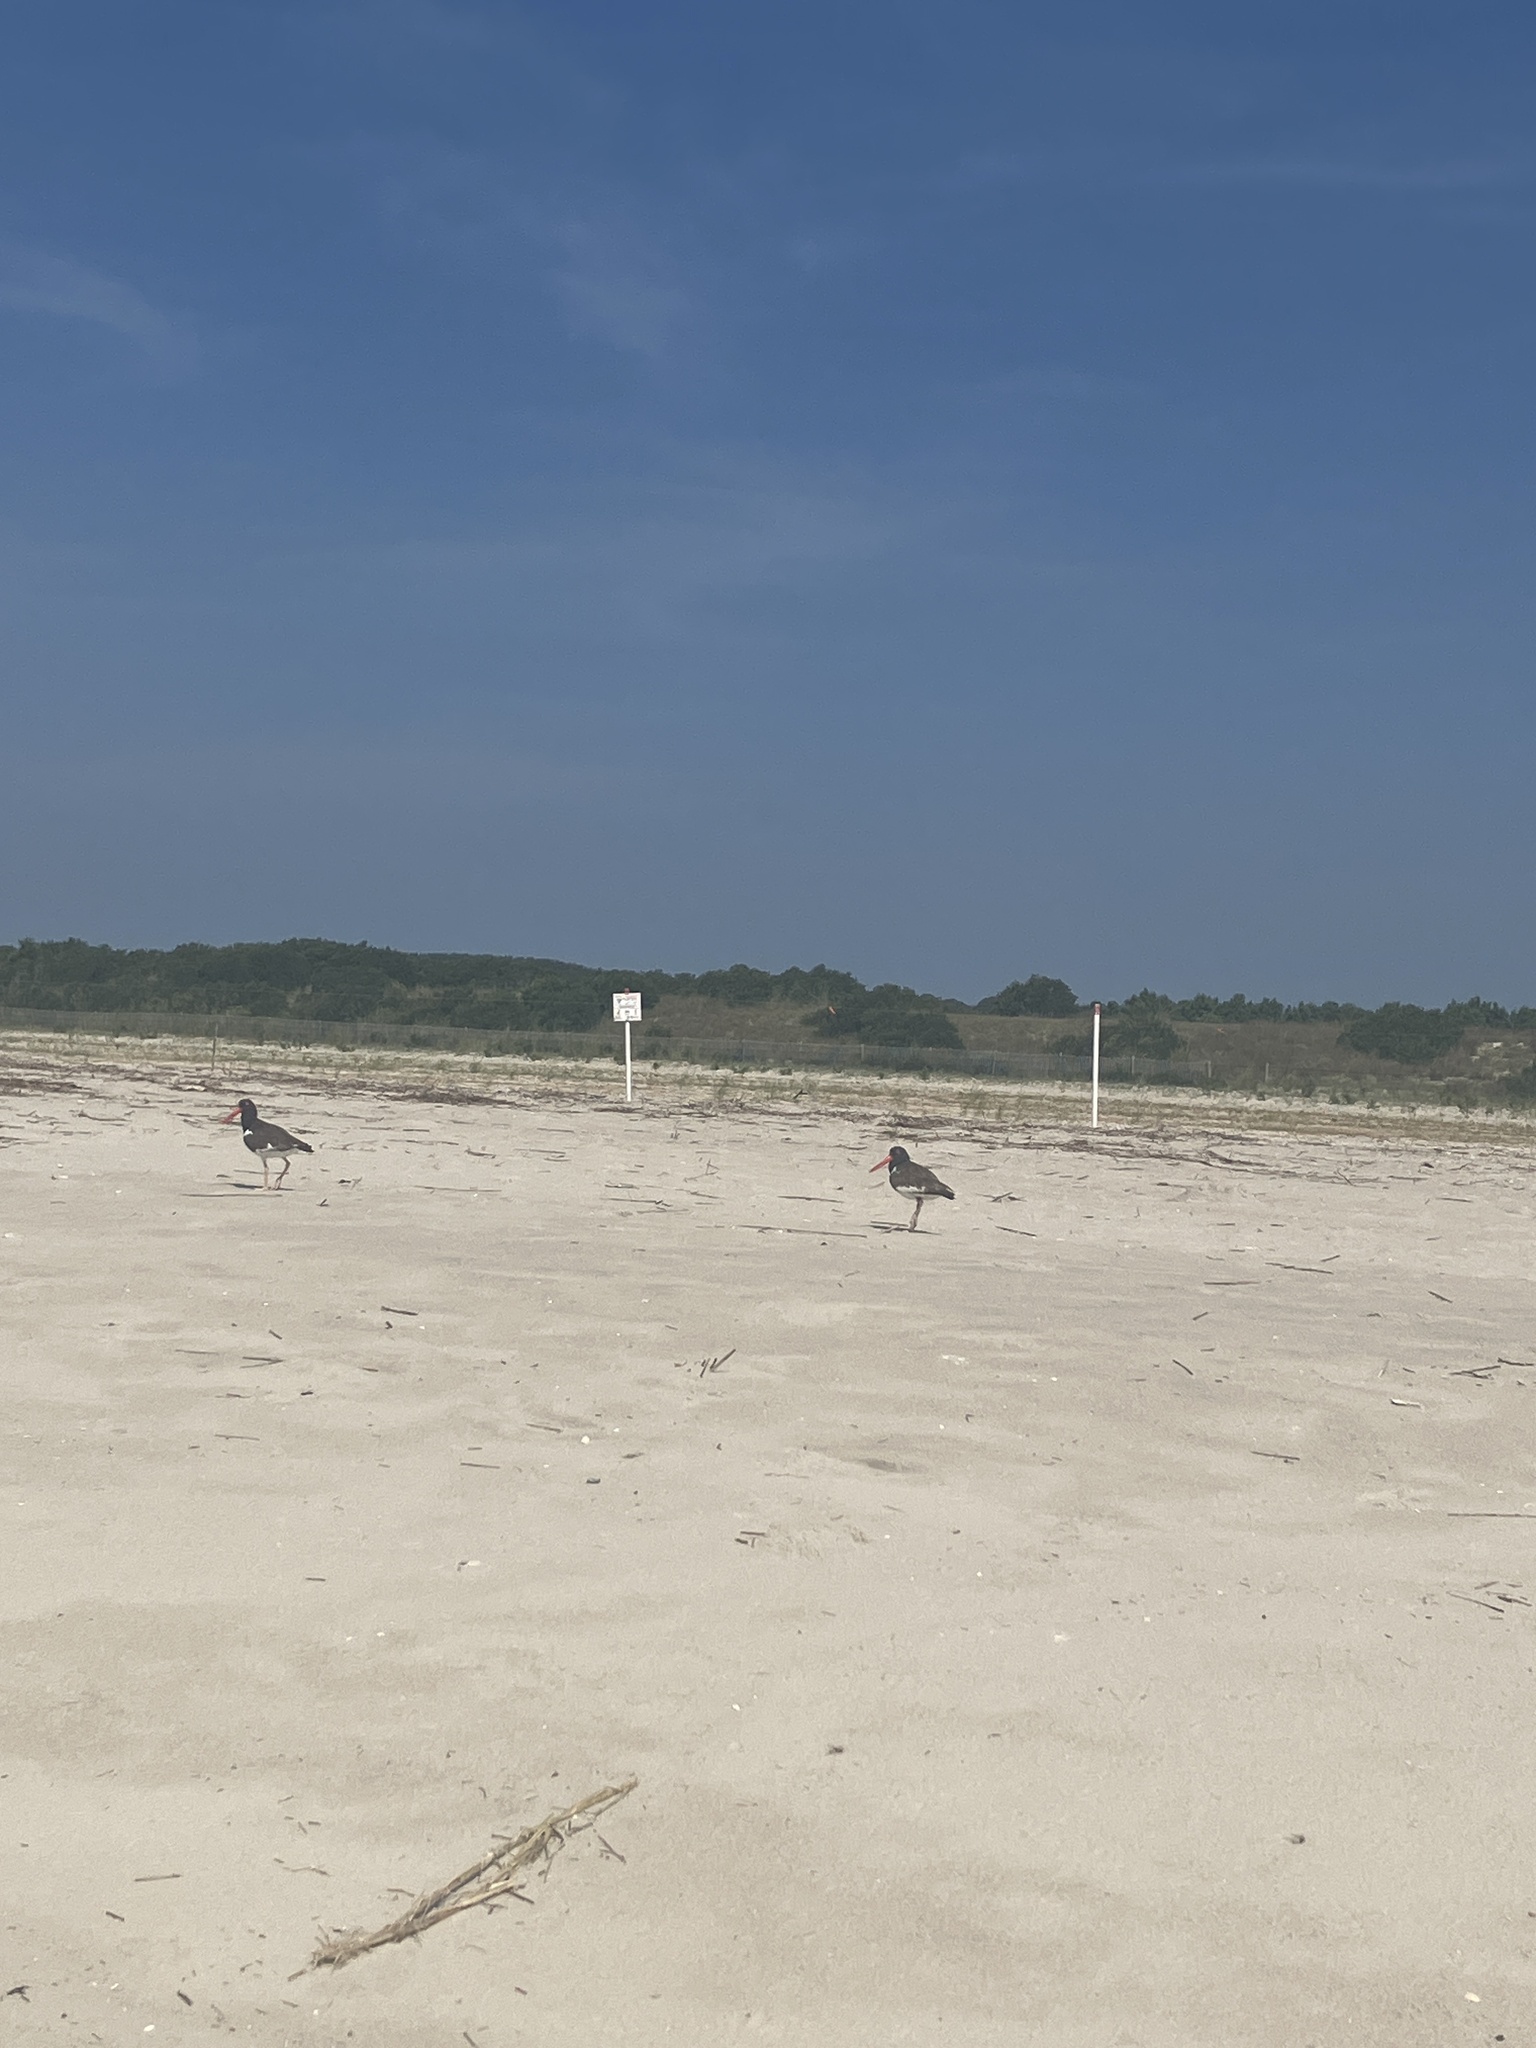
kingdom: Animalia
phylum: Chordata
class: Aves
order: Charadriiformes
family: Haematopodidae
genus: Haematopus
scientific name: Haematopus palliatus
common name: American oystercatcher
